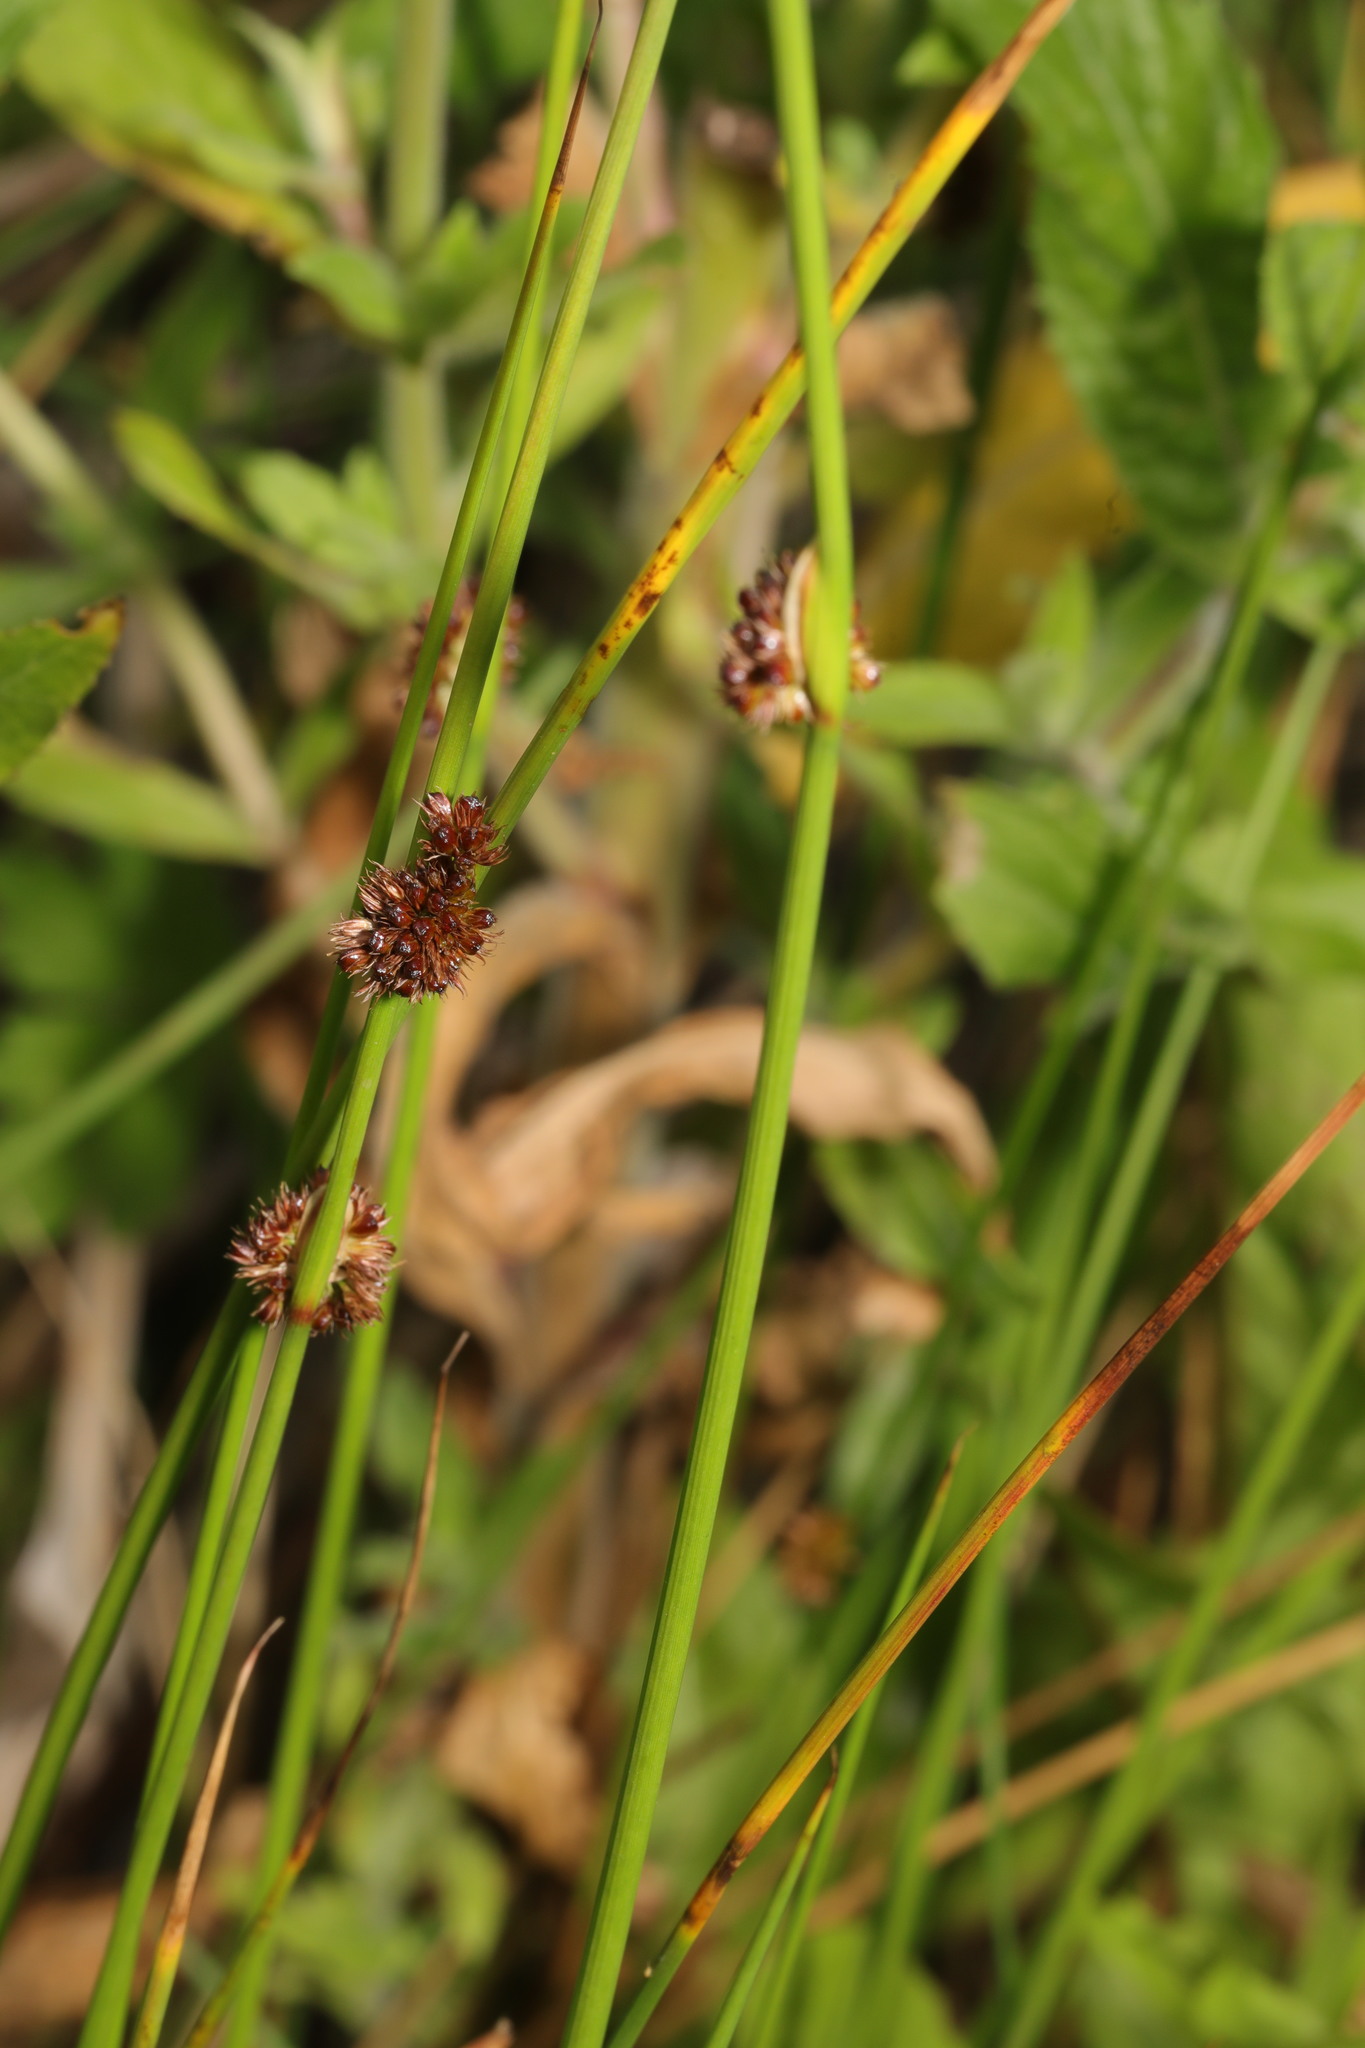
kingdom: Plantae
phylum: Tracheophyta
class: Liliopsida
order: Poales
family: Juncaceae
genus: Juncus
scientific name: Juncus conglomeratus
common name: Compact rush
